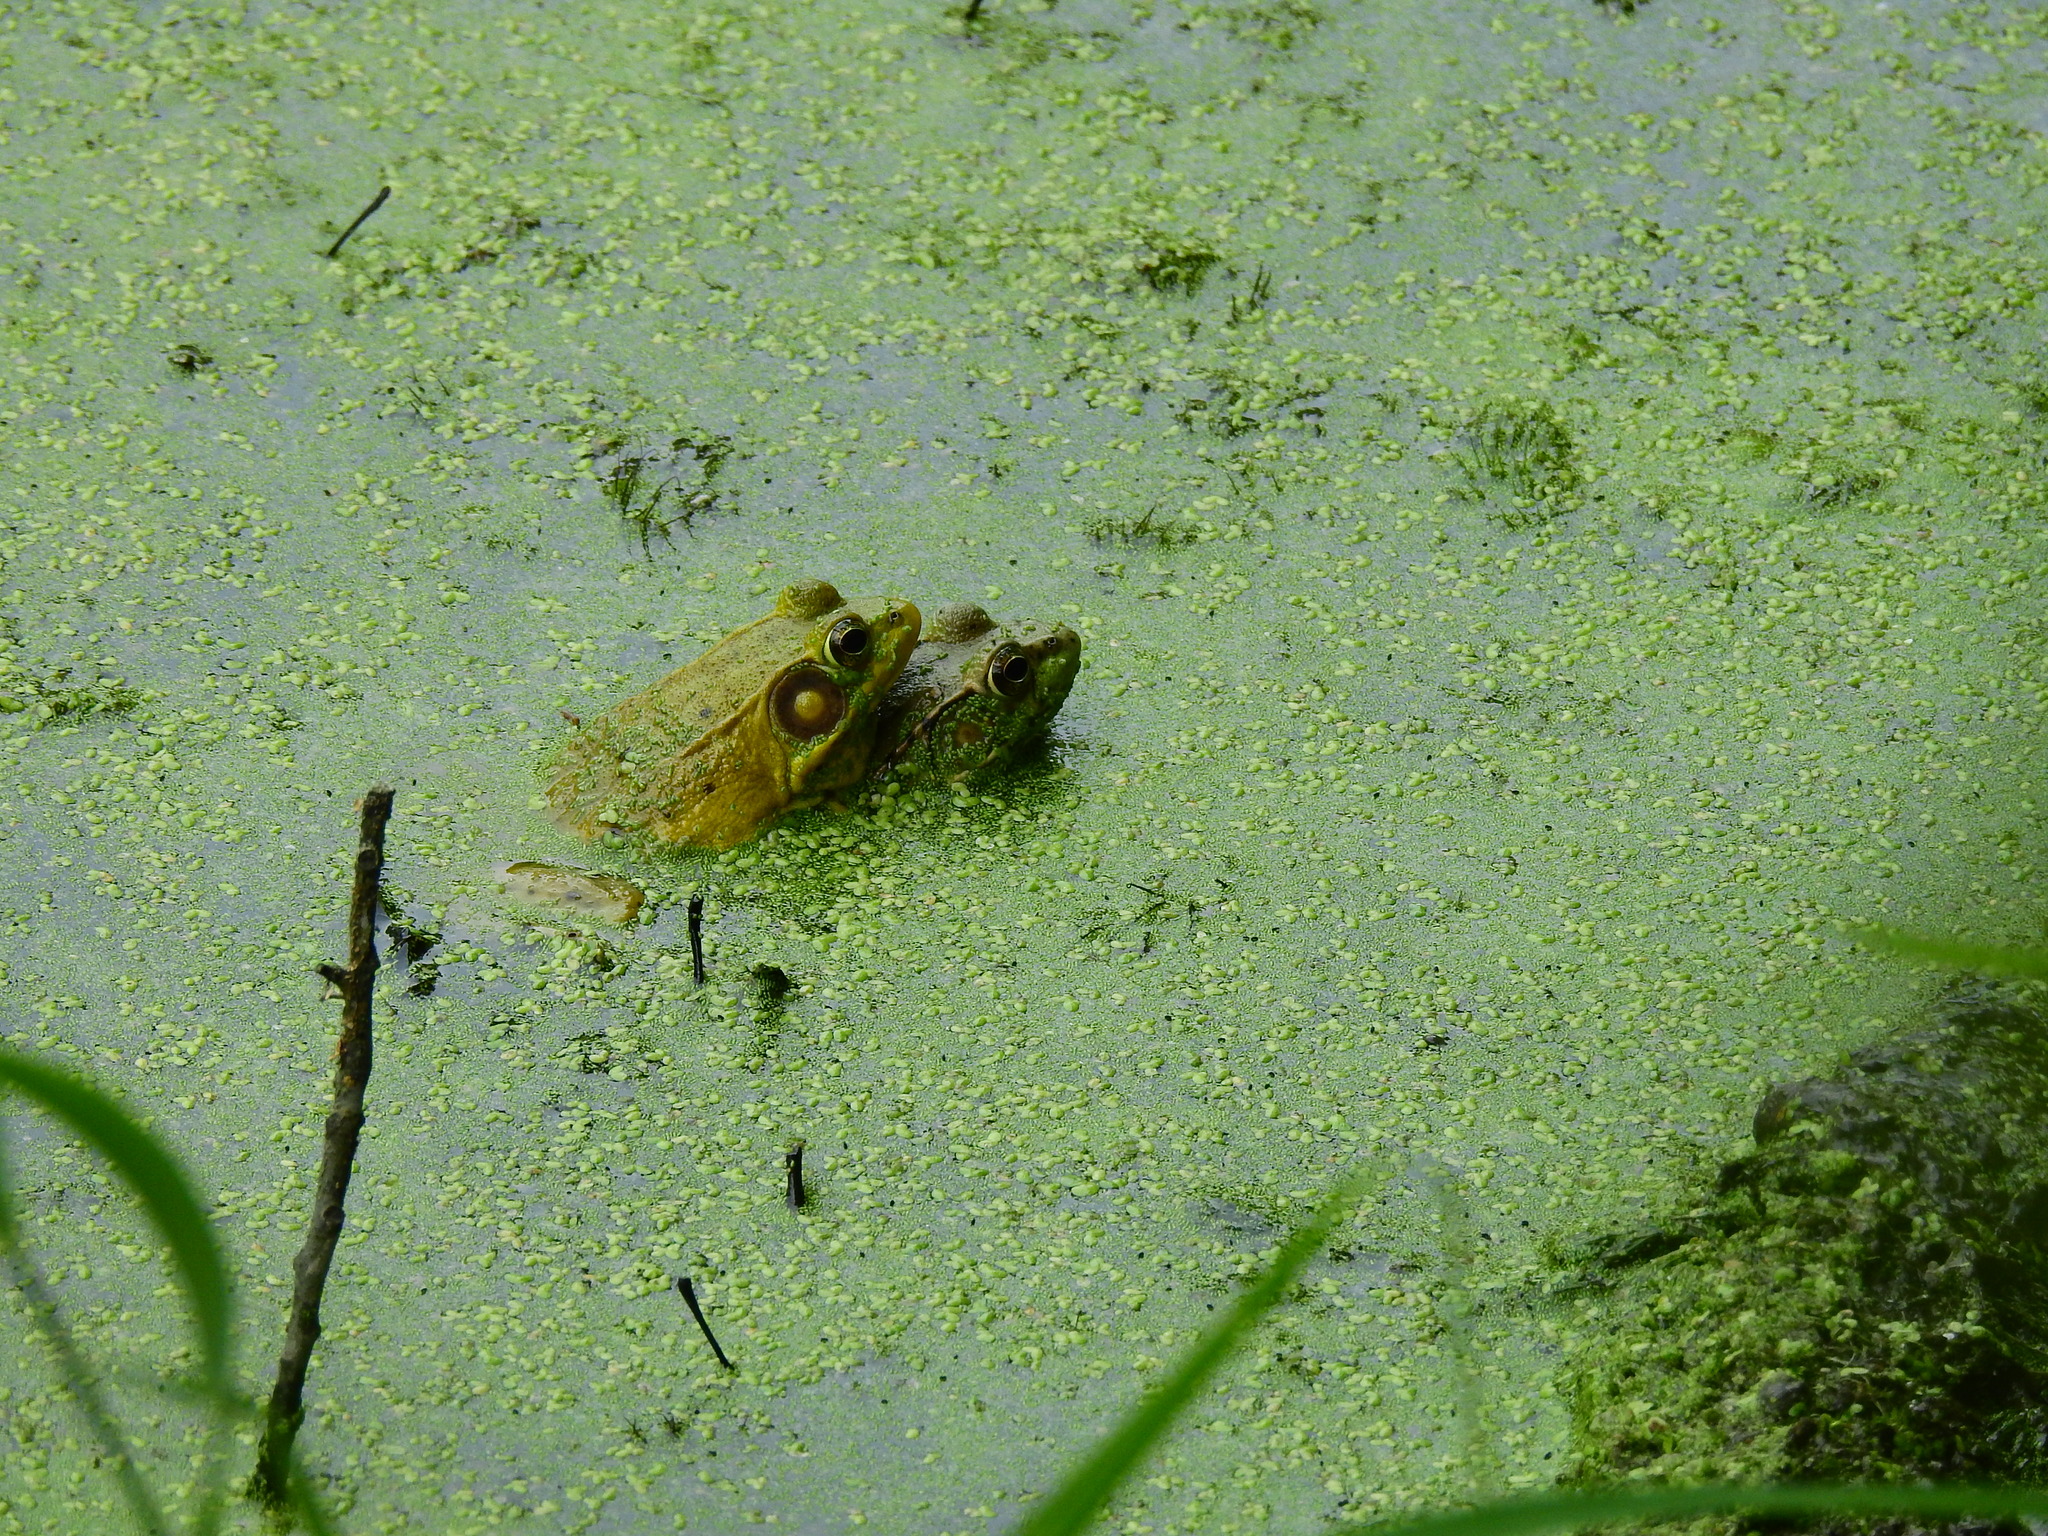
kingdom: Animalia
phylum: Chordata
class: Amphibia
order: Anura
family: Ranidae
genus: Lithobates
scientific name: Lithobates clamitans
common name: Green frog
